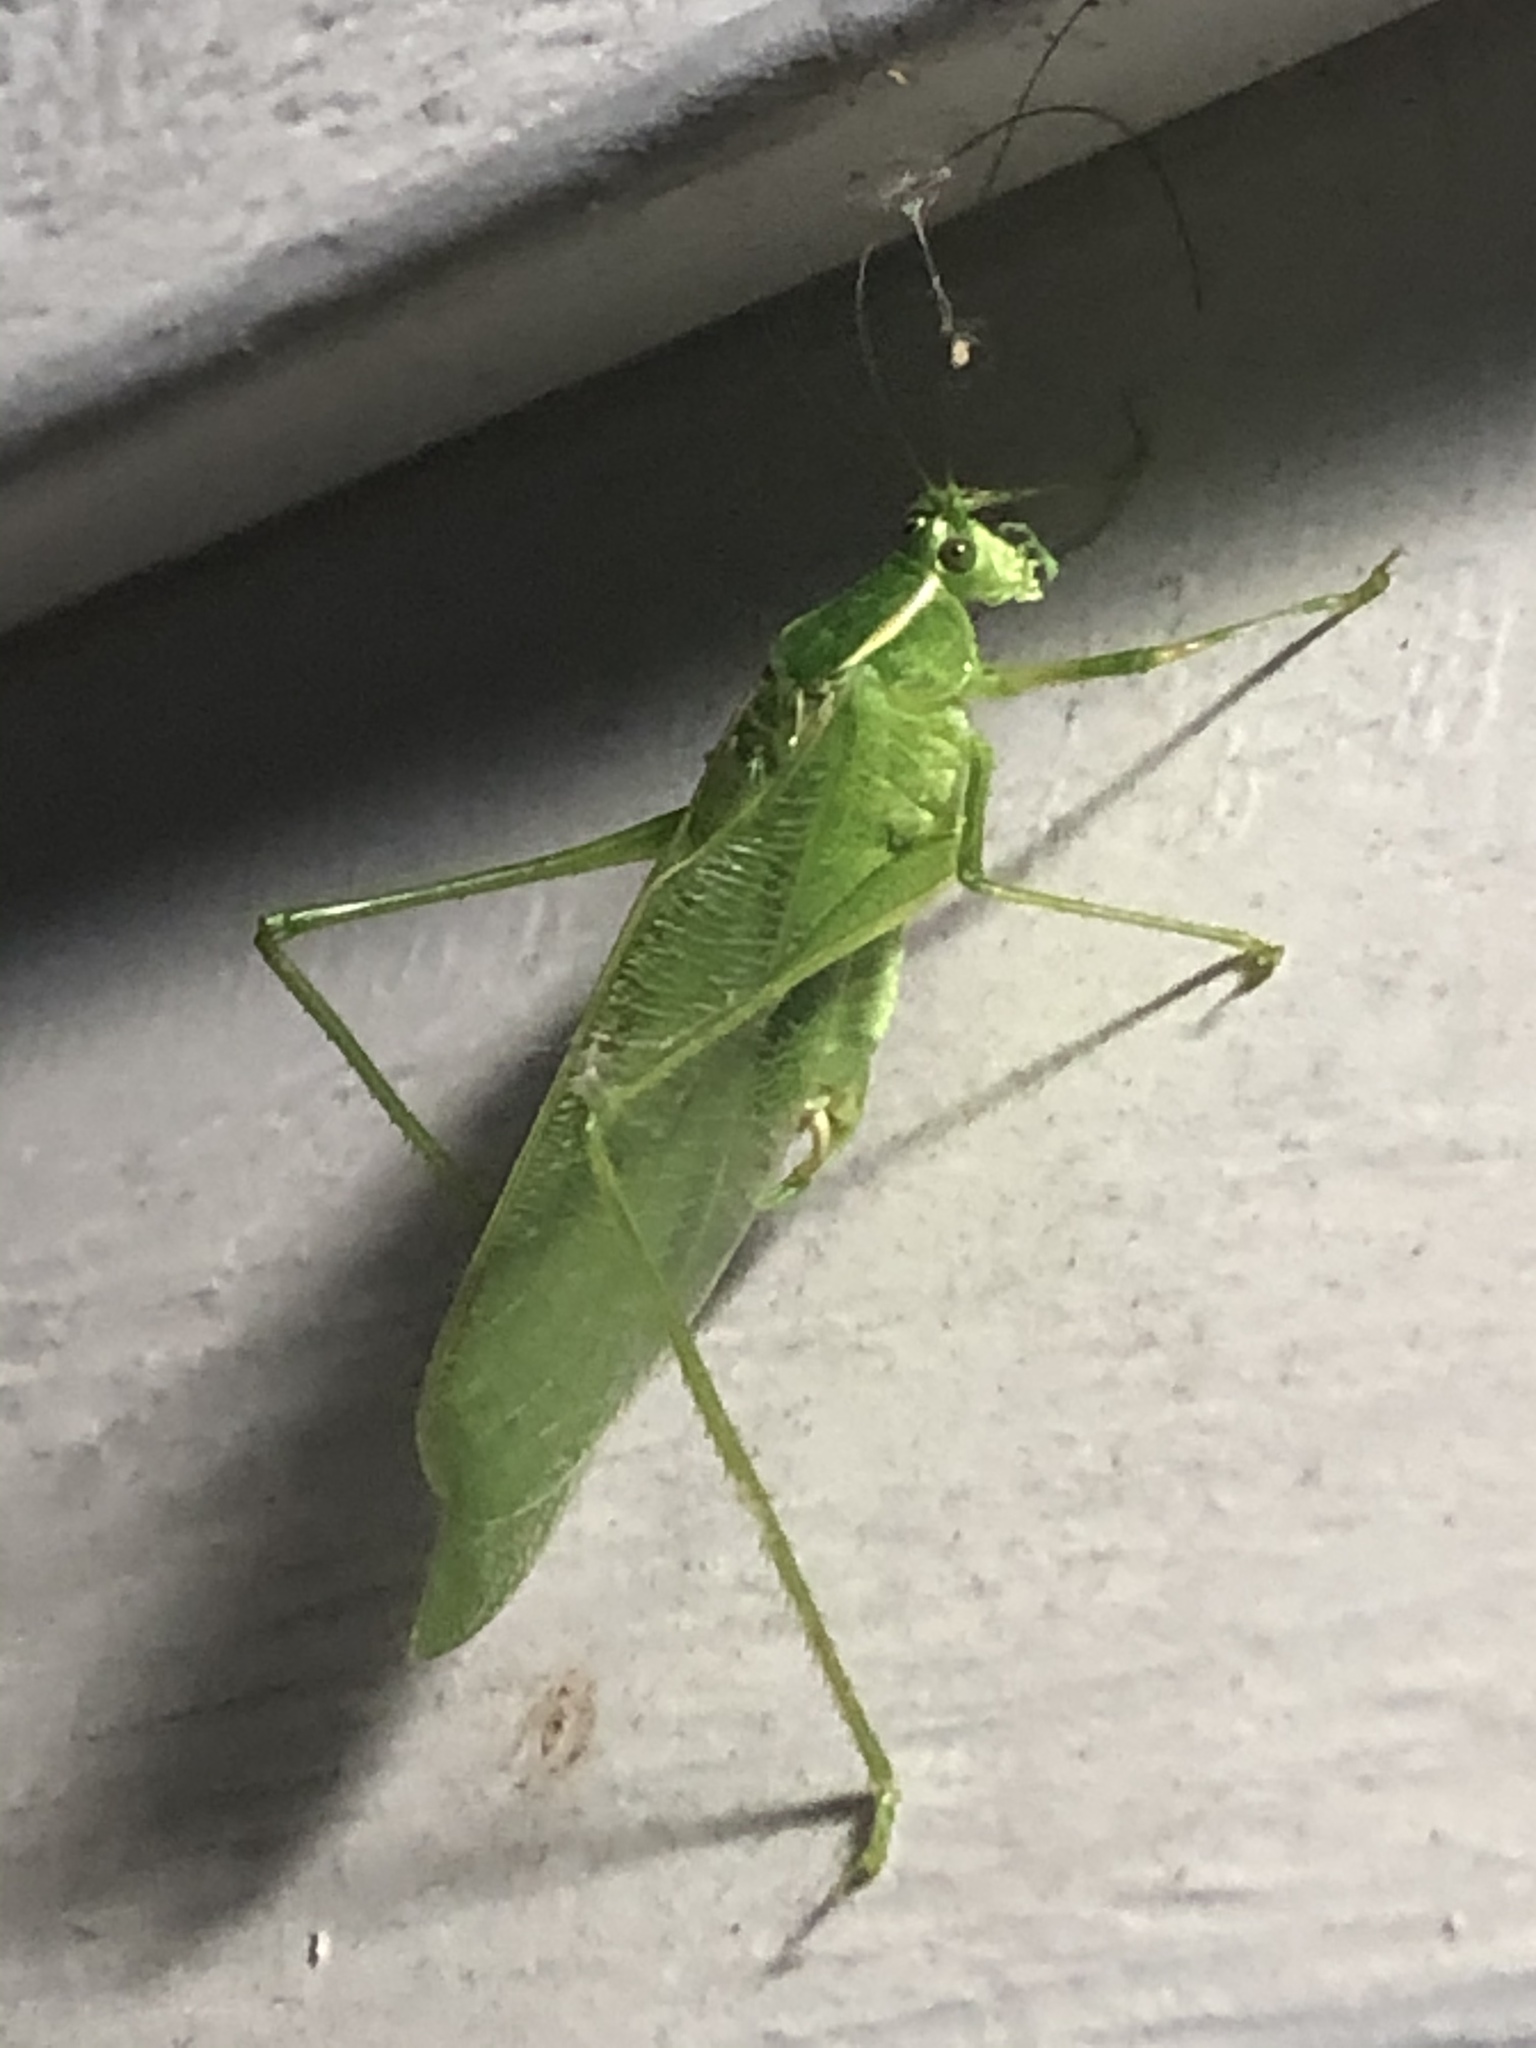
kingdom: Animalia
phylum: Arthropoda
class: Insecta
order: Orthoptera
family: Tettigoniidae
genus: Scudderia
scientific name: Scudderia septentrionalis
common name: Northern bush-katydid
